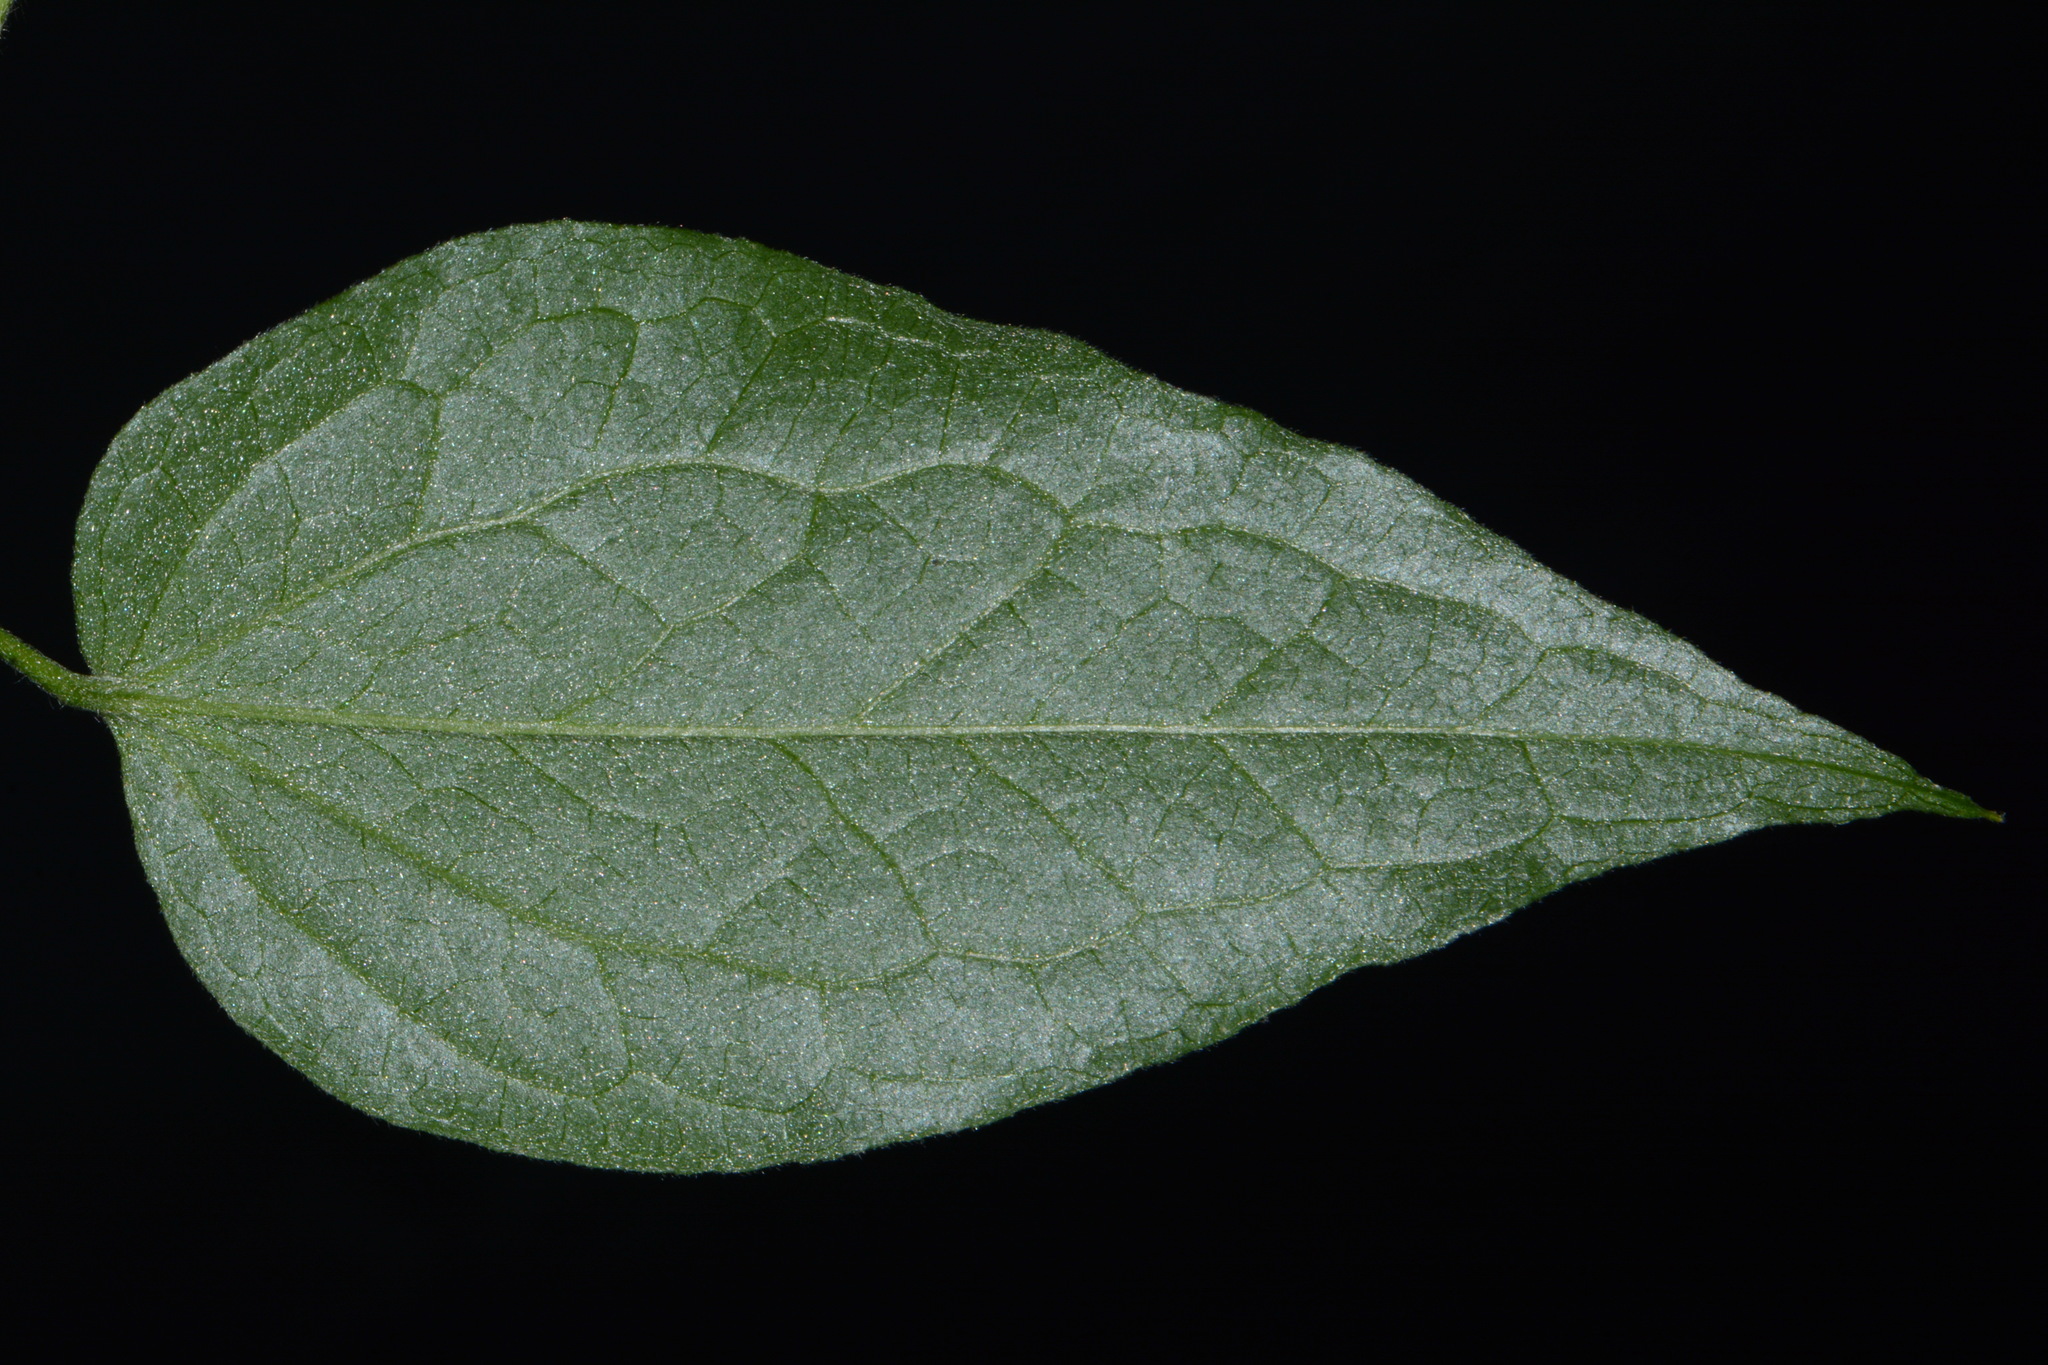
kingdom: Plantae
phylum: Tracheophyta
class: Magnoliopsida
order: Ranunculales
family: Ranunculaceae
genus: Clematis
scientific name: Clematis morefieldii
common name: Morefield's clematis
